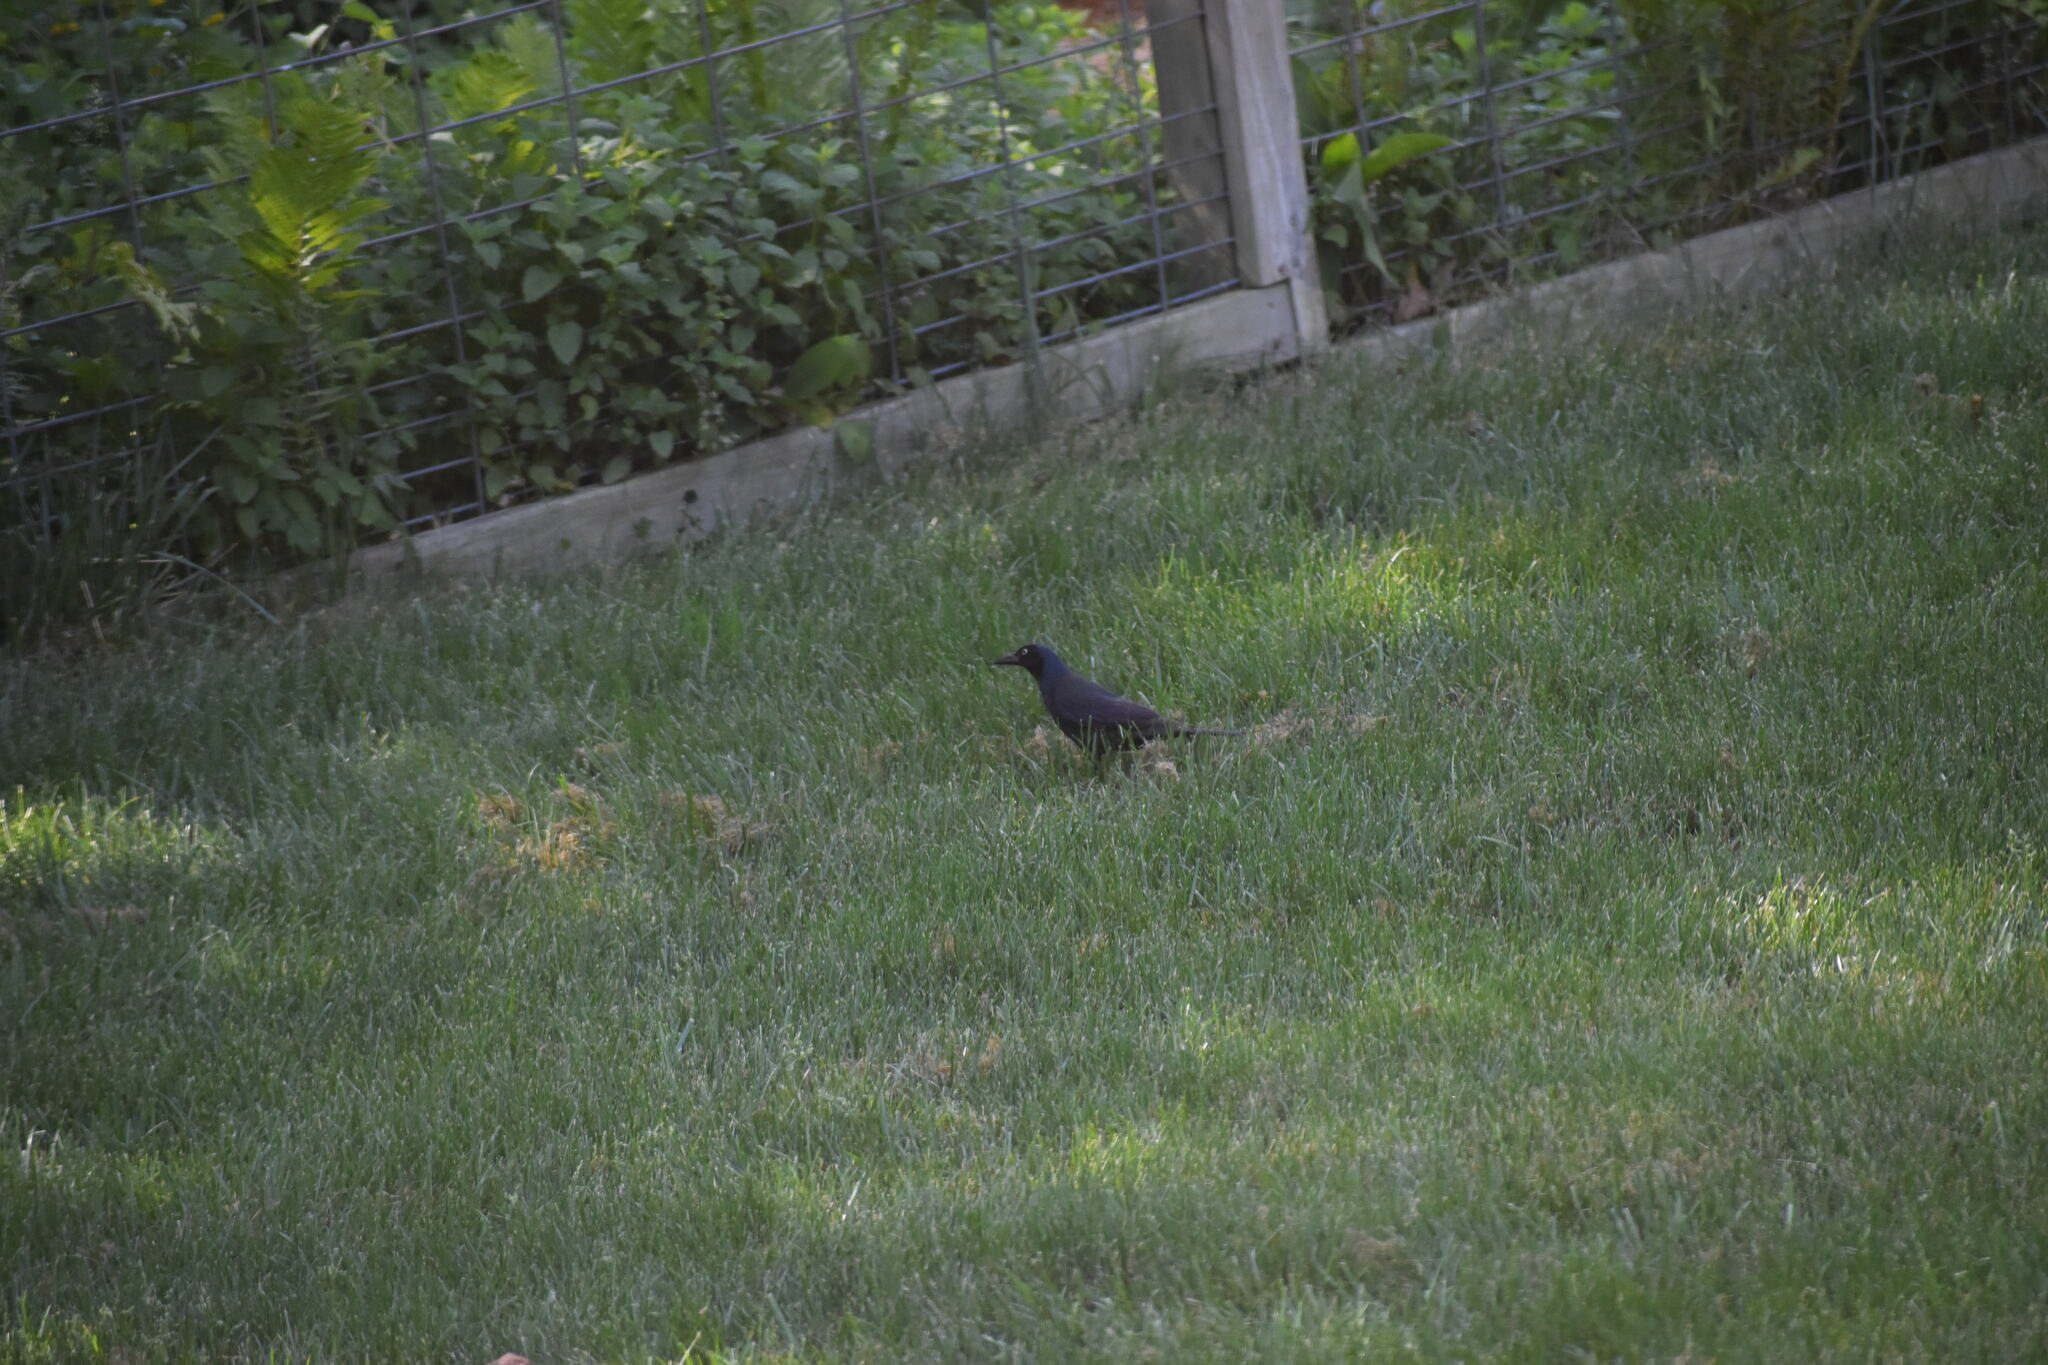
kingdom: Animalia
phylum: Chordata
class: Aves
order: Passeriformes
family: Icteridae
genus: Quiscalus
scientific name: Quiscalus quiscula
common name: Common grackle
